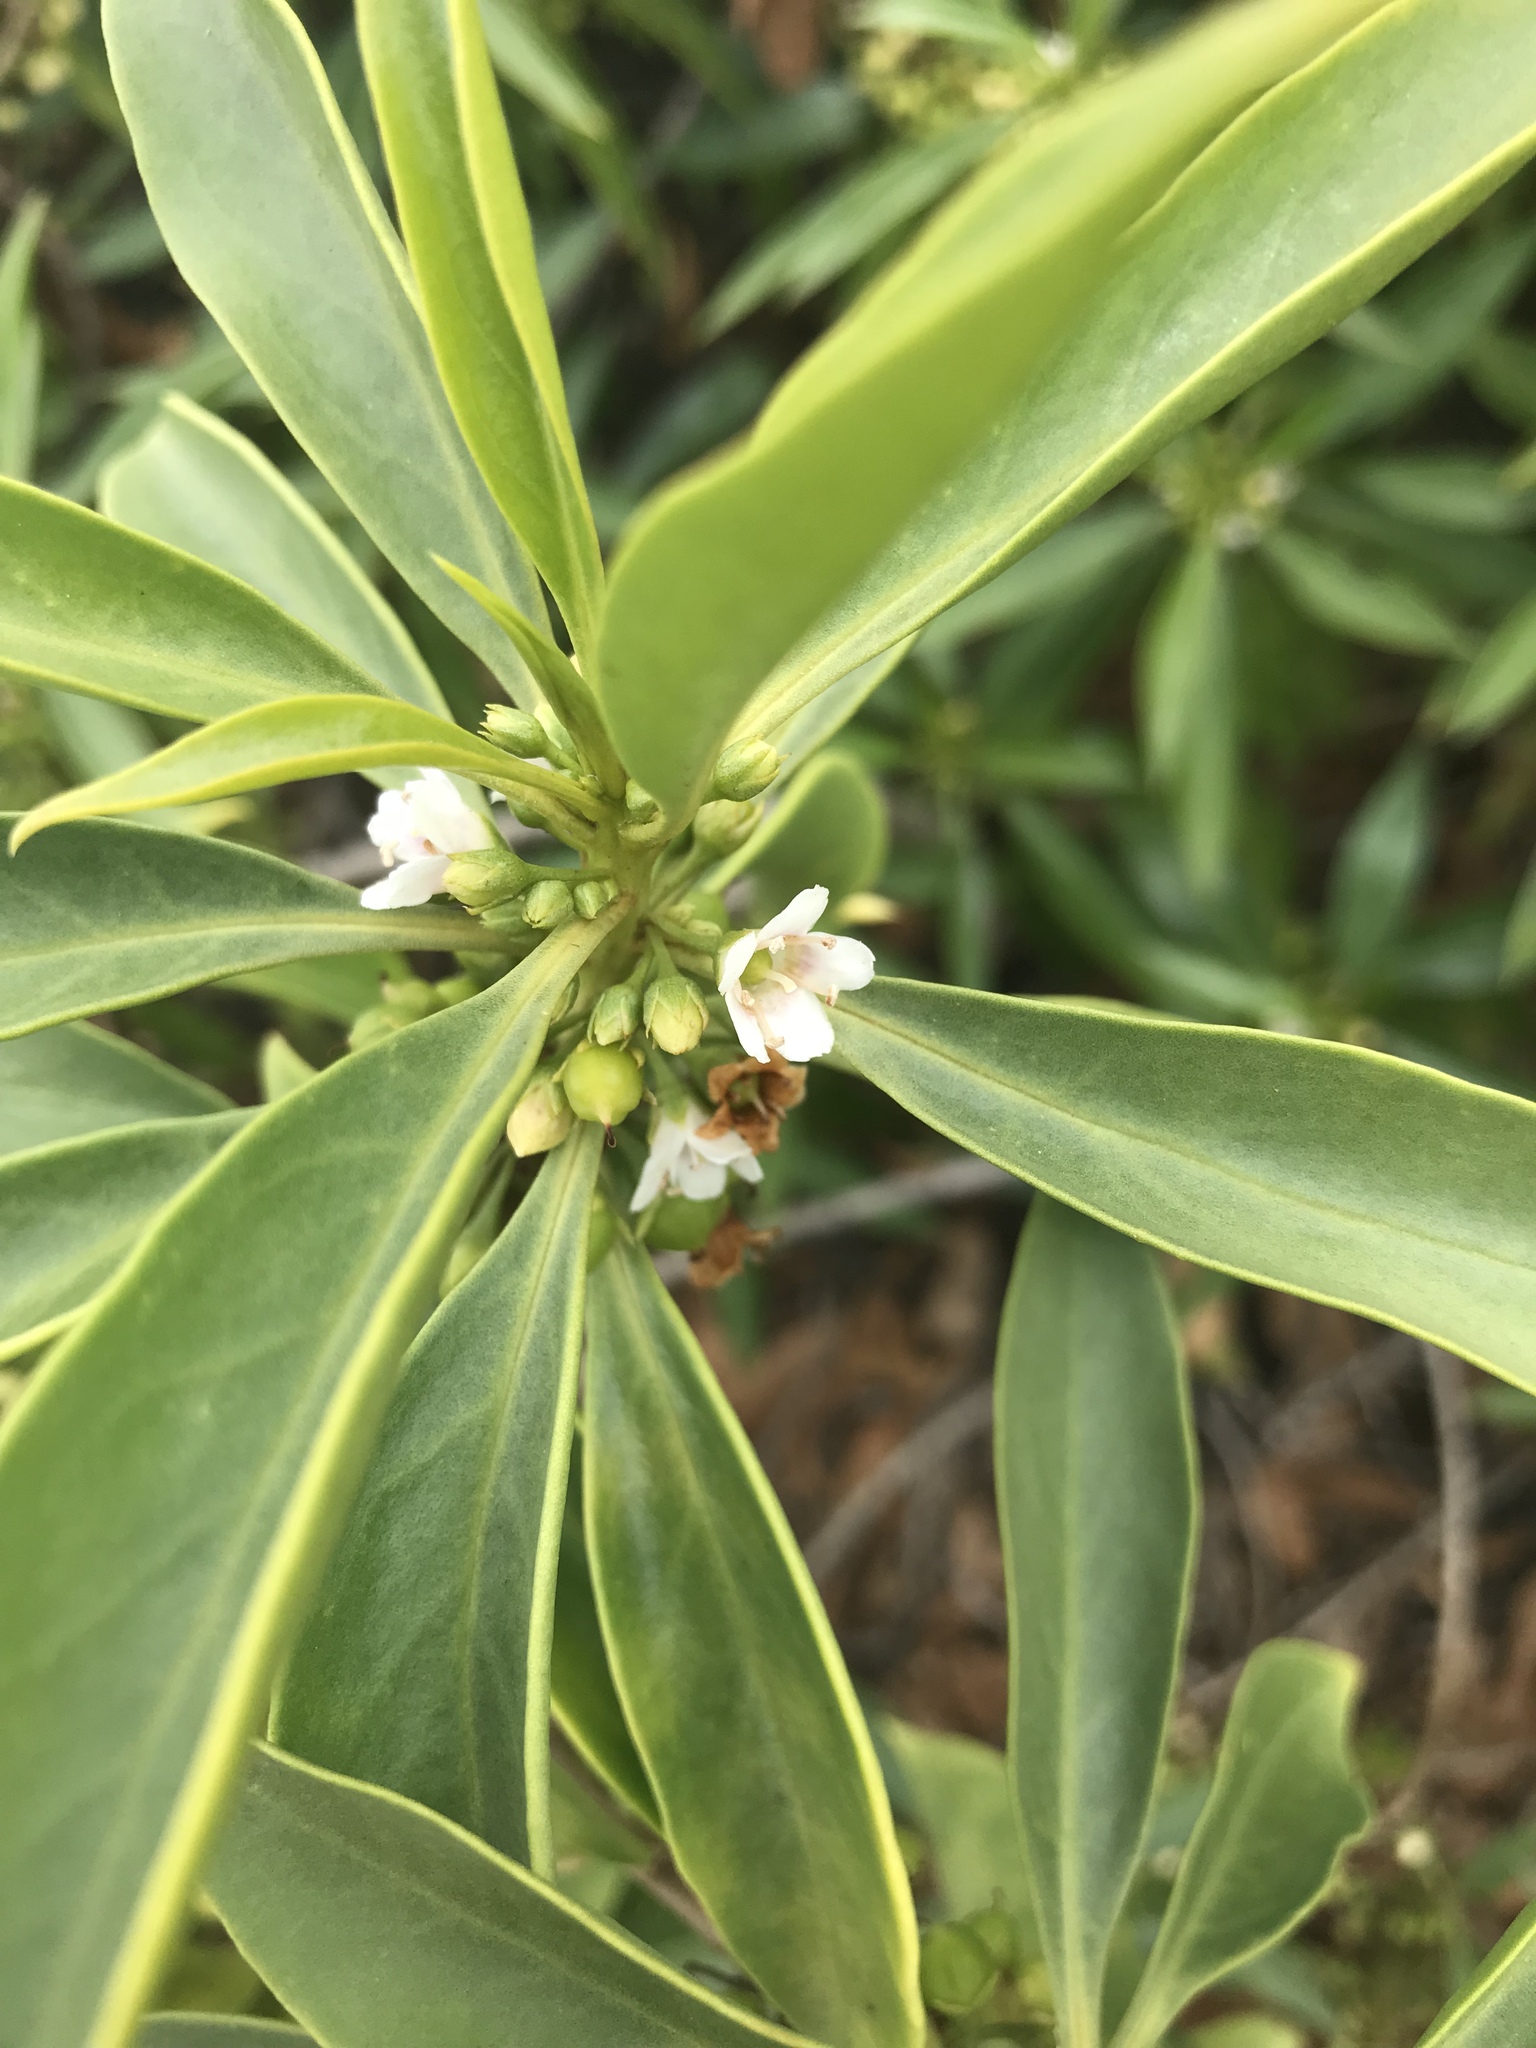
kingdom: Plantae
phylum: Tracheophyta
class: Magnoliopsida
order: Lamiales
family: Scrophulariaceae
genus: Myoporum
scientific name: Myoporum sandwicense
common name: Bastard-sandalwood
